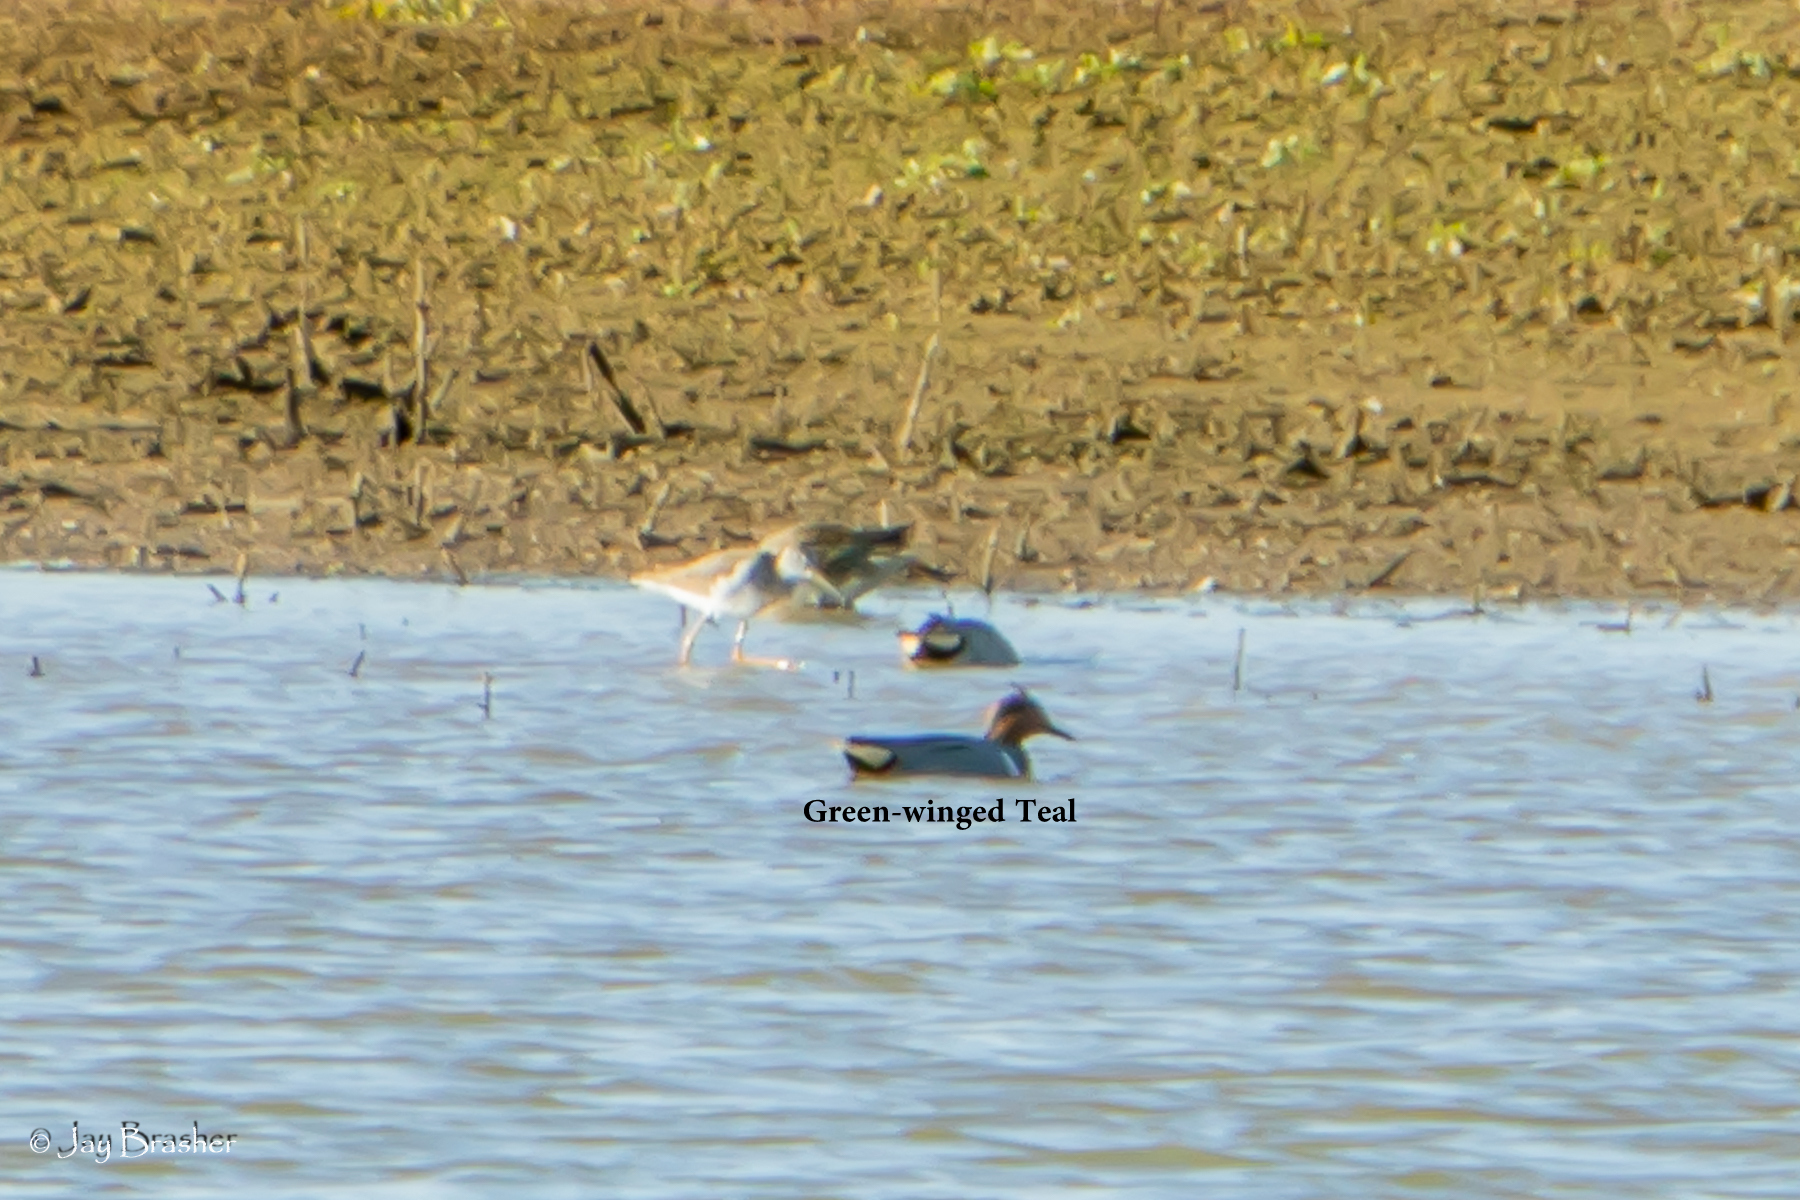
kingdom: Animalia
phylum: Chordata
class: Aves
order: Anseriformes
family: Anatidae
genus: Anas
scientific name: Anas crecca
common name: Eurasian teal
